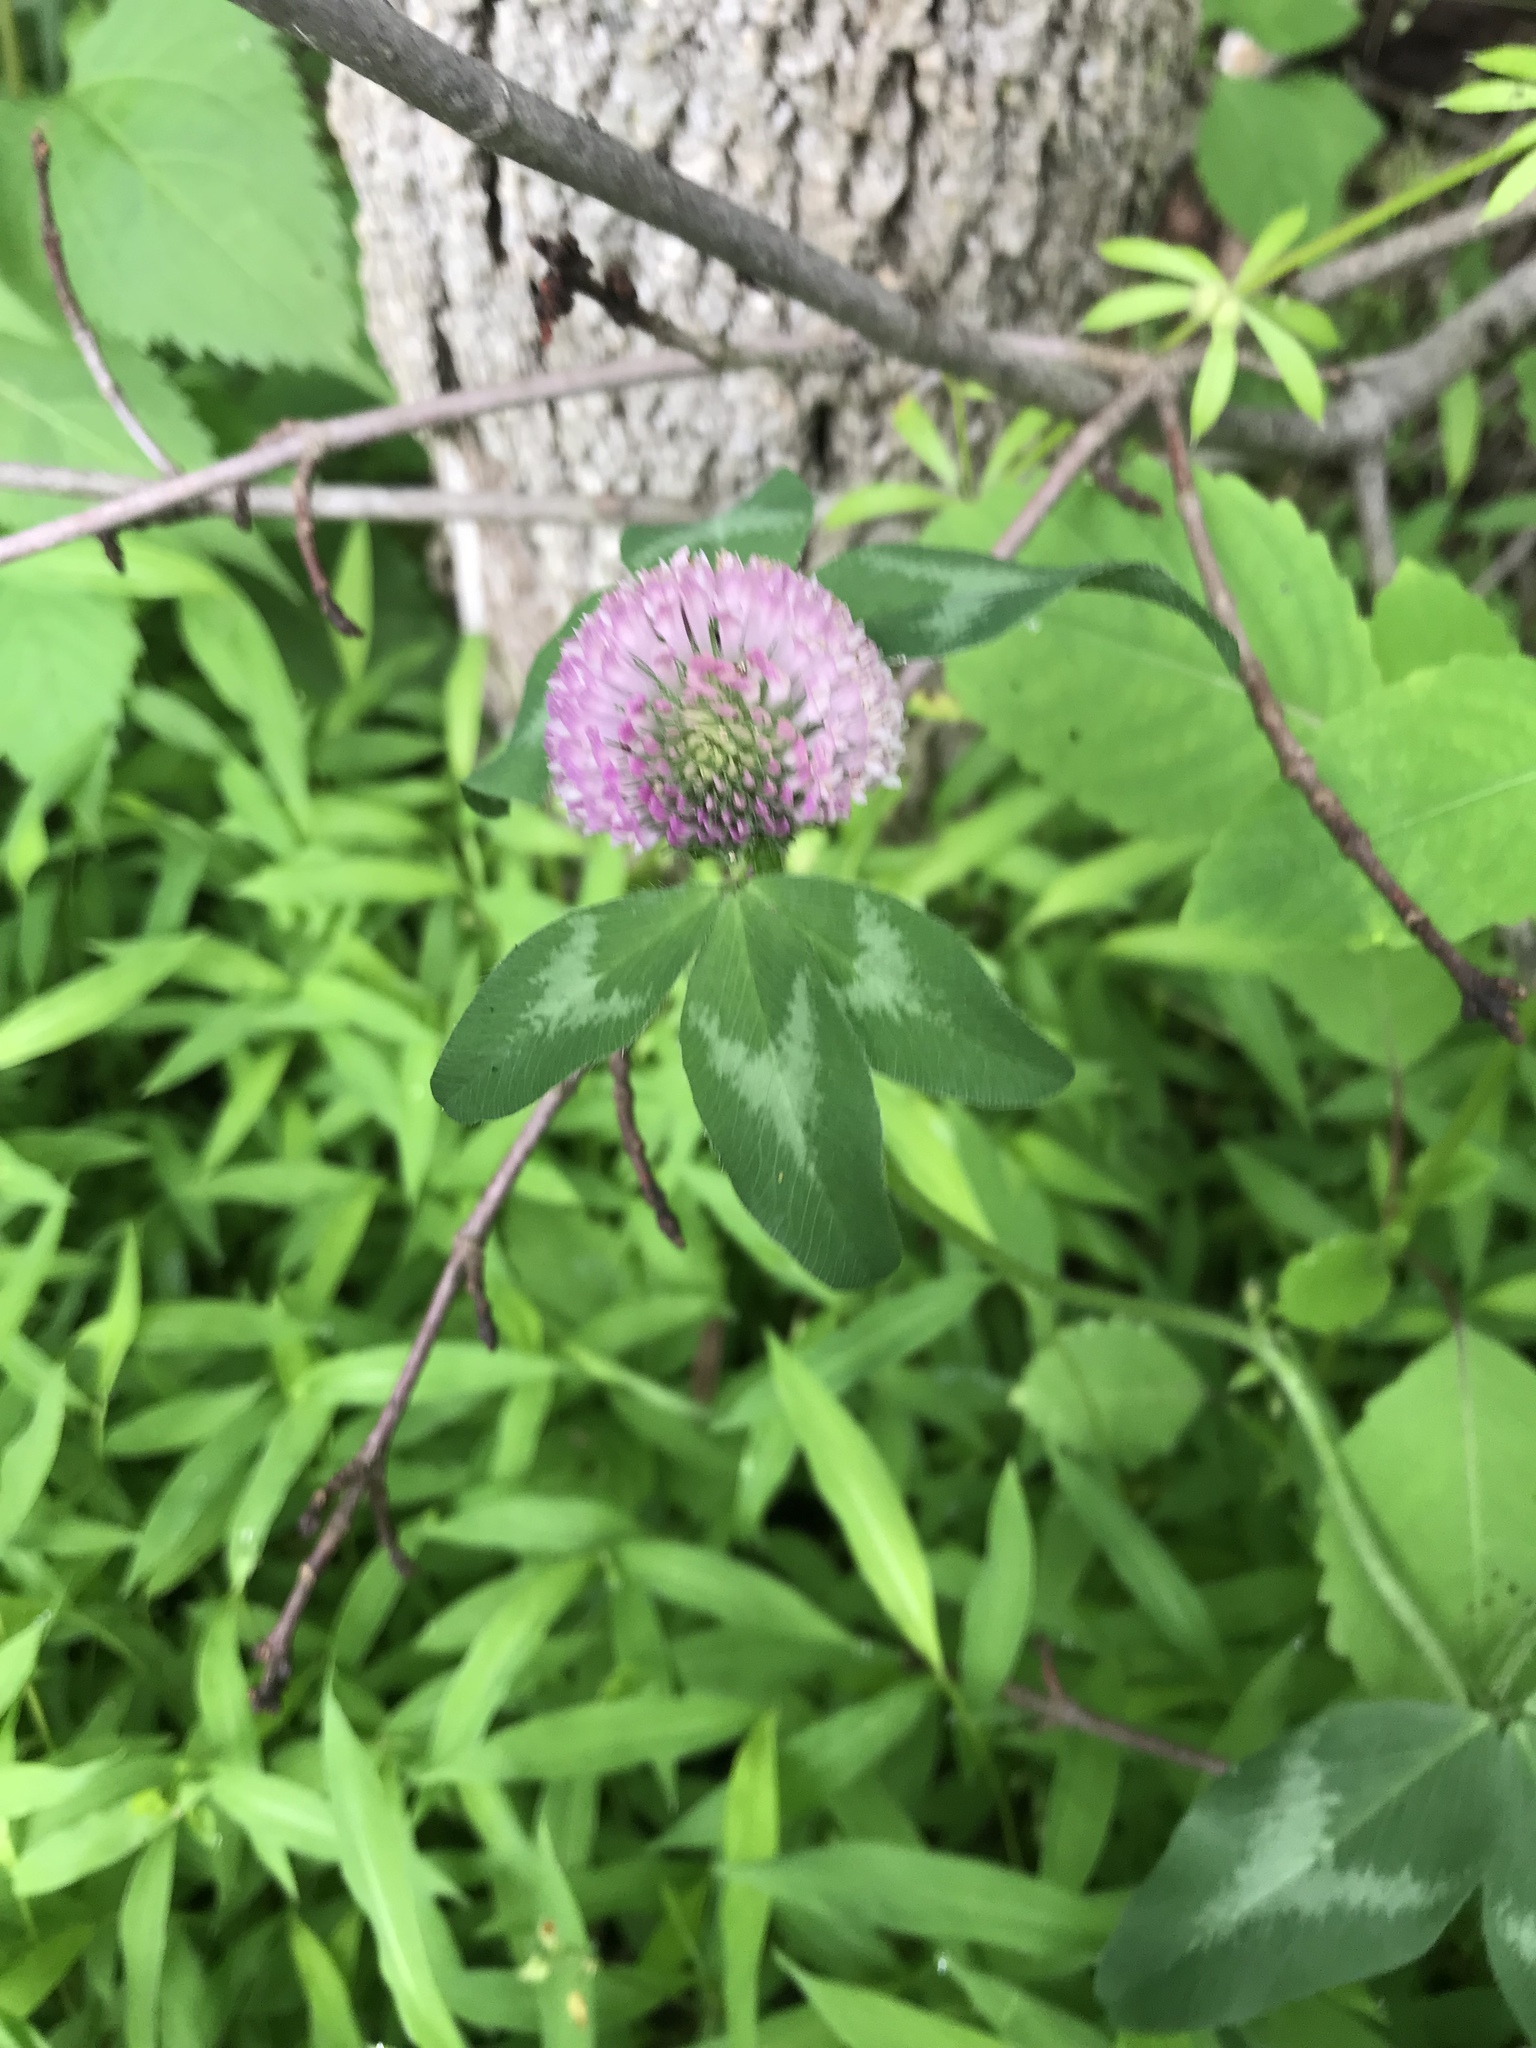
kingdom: Plantae
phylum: Tracheophyta
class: Magnoliopsida
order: Fabales
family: Fabaceae
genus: Trifolium
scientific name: Trifolium pratense
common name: Red clover
